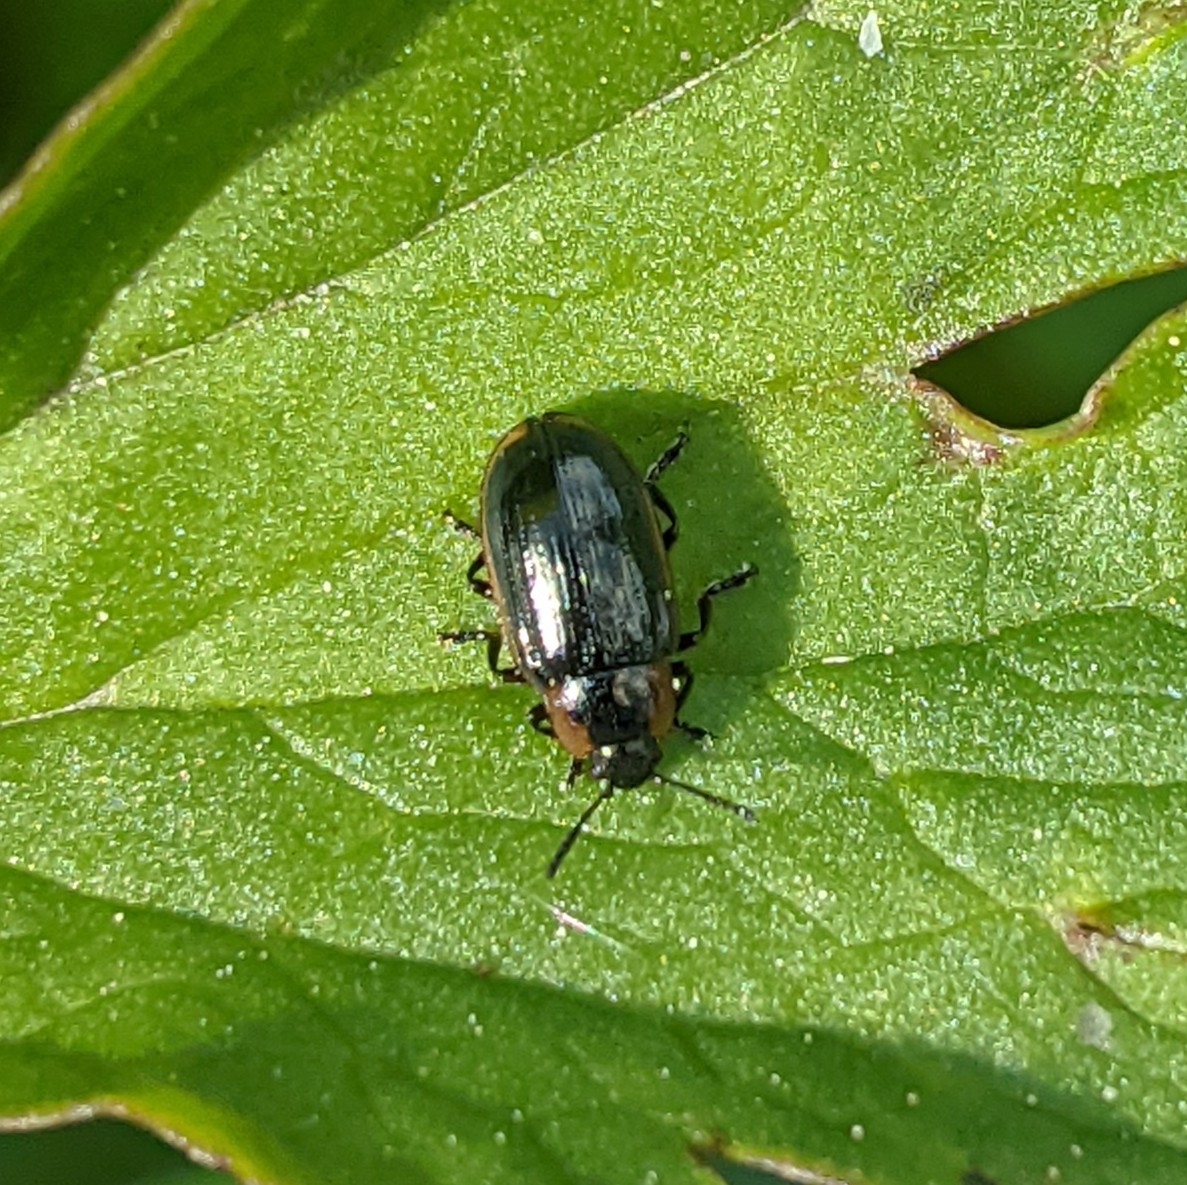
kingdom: Animalia
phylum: Arthropoda
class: Insecta
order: Coleoptera
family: Chrysomelidae
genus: Prasocuris
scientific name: Prasocuris marginella
